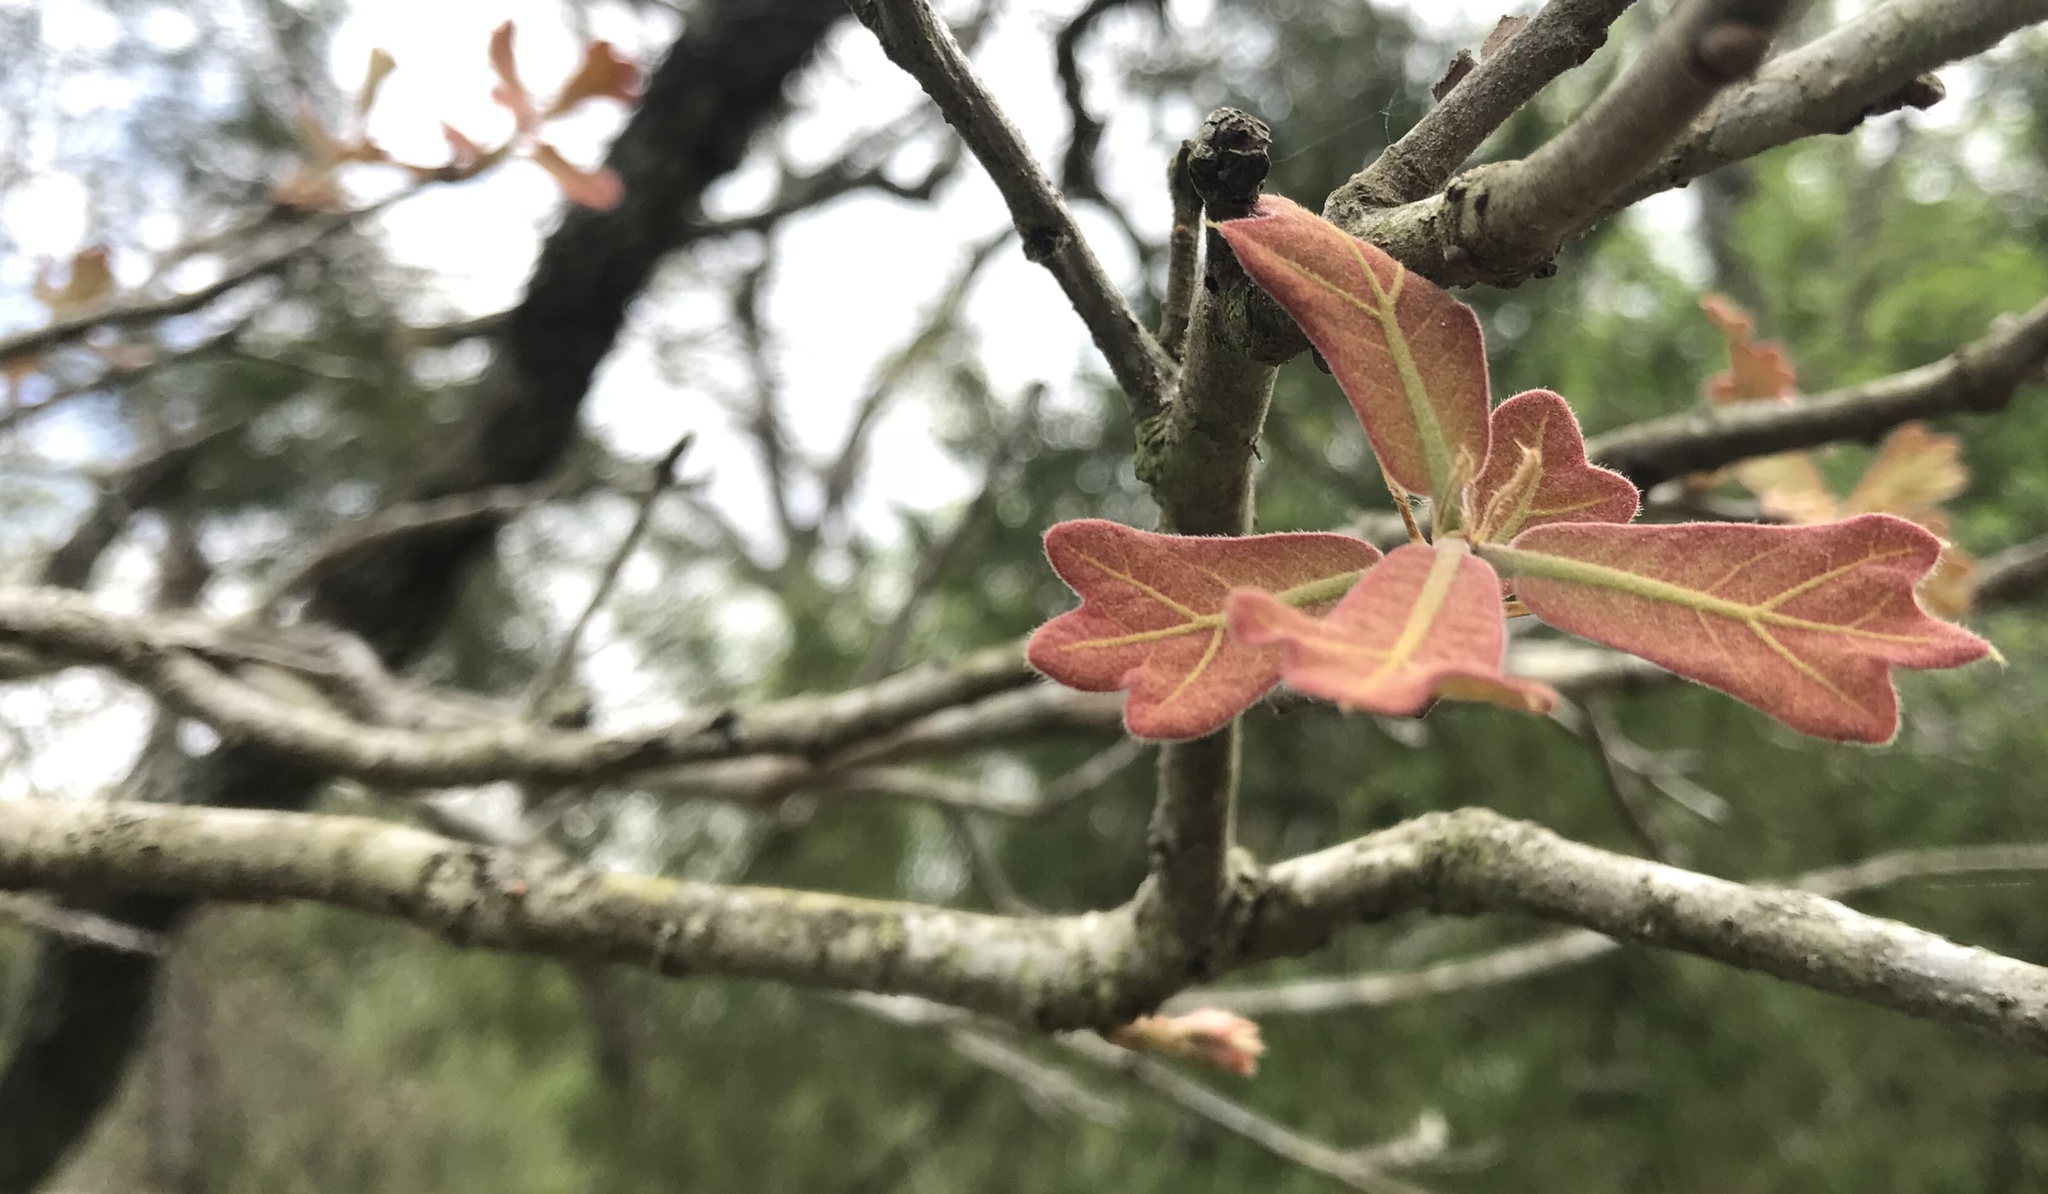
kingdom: Plantae
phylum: Tracheophyta
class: Magnoliopsida
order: Fagales
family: Fagaceae
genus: Quercus
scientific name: Quercus marilandica
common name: Blackjack oak
